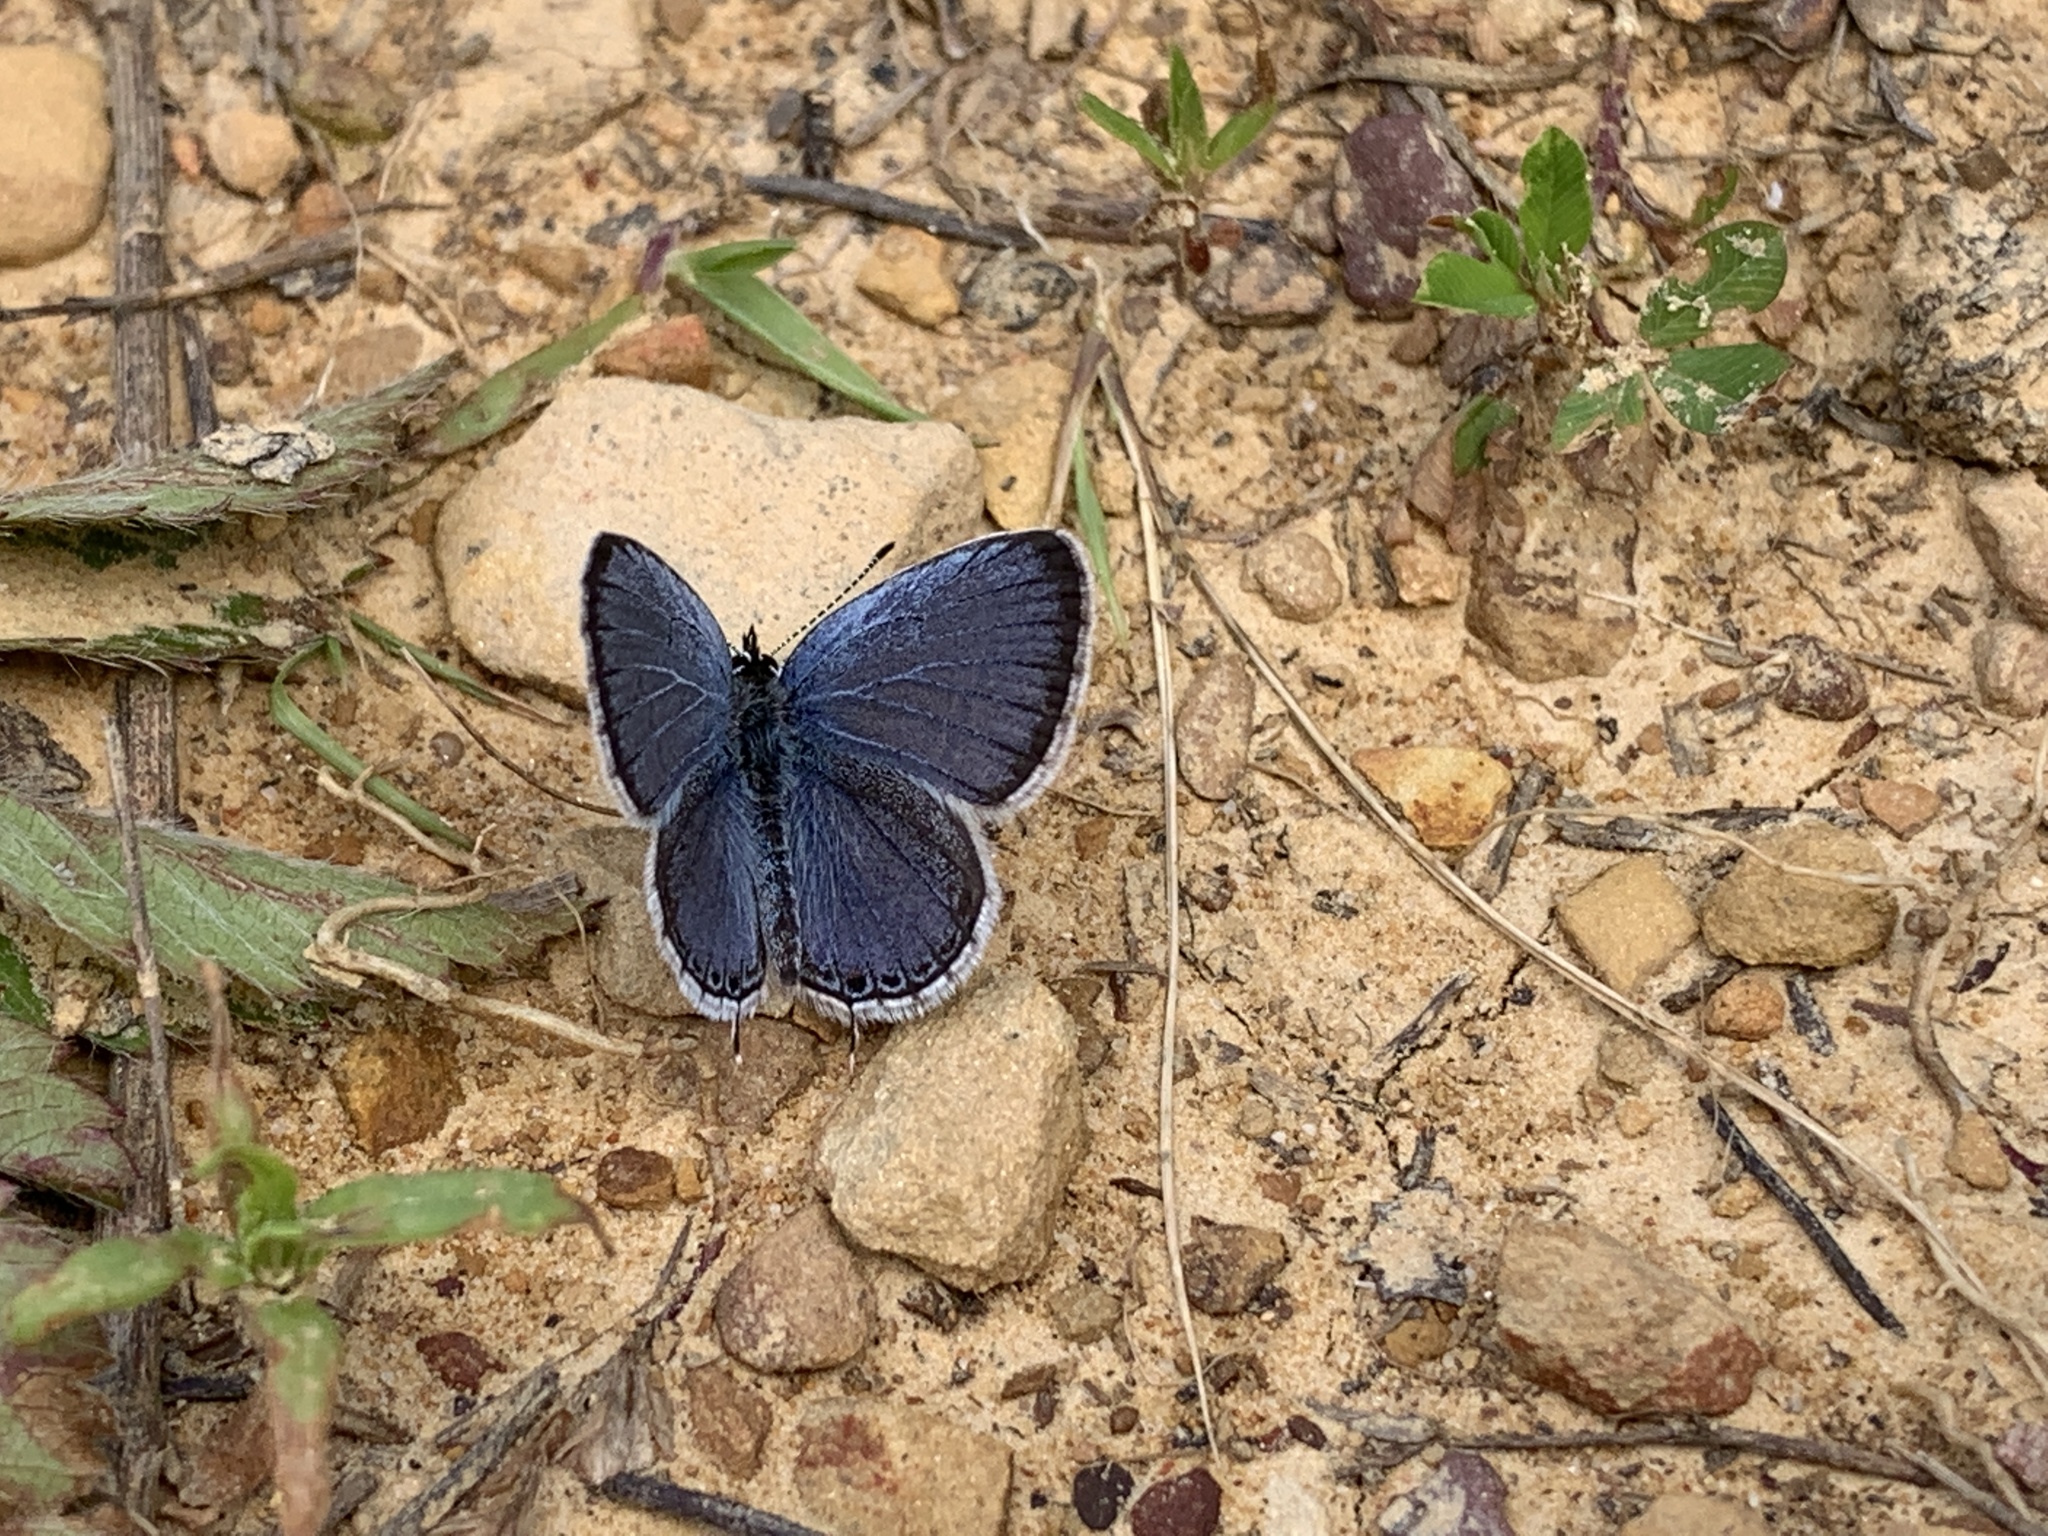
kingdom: Animalia
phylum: Arthropoda
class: Insecta
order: Lepidoptera
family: Lycaenidae
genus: Elkalyce
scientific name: Elkalyce comyntas
